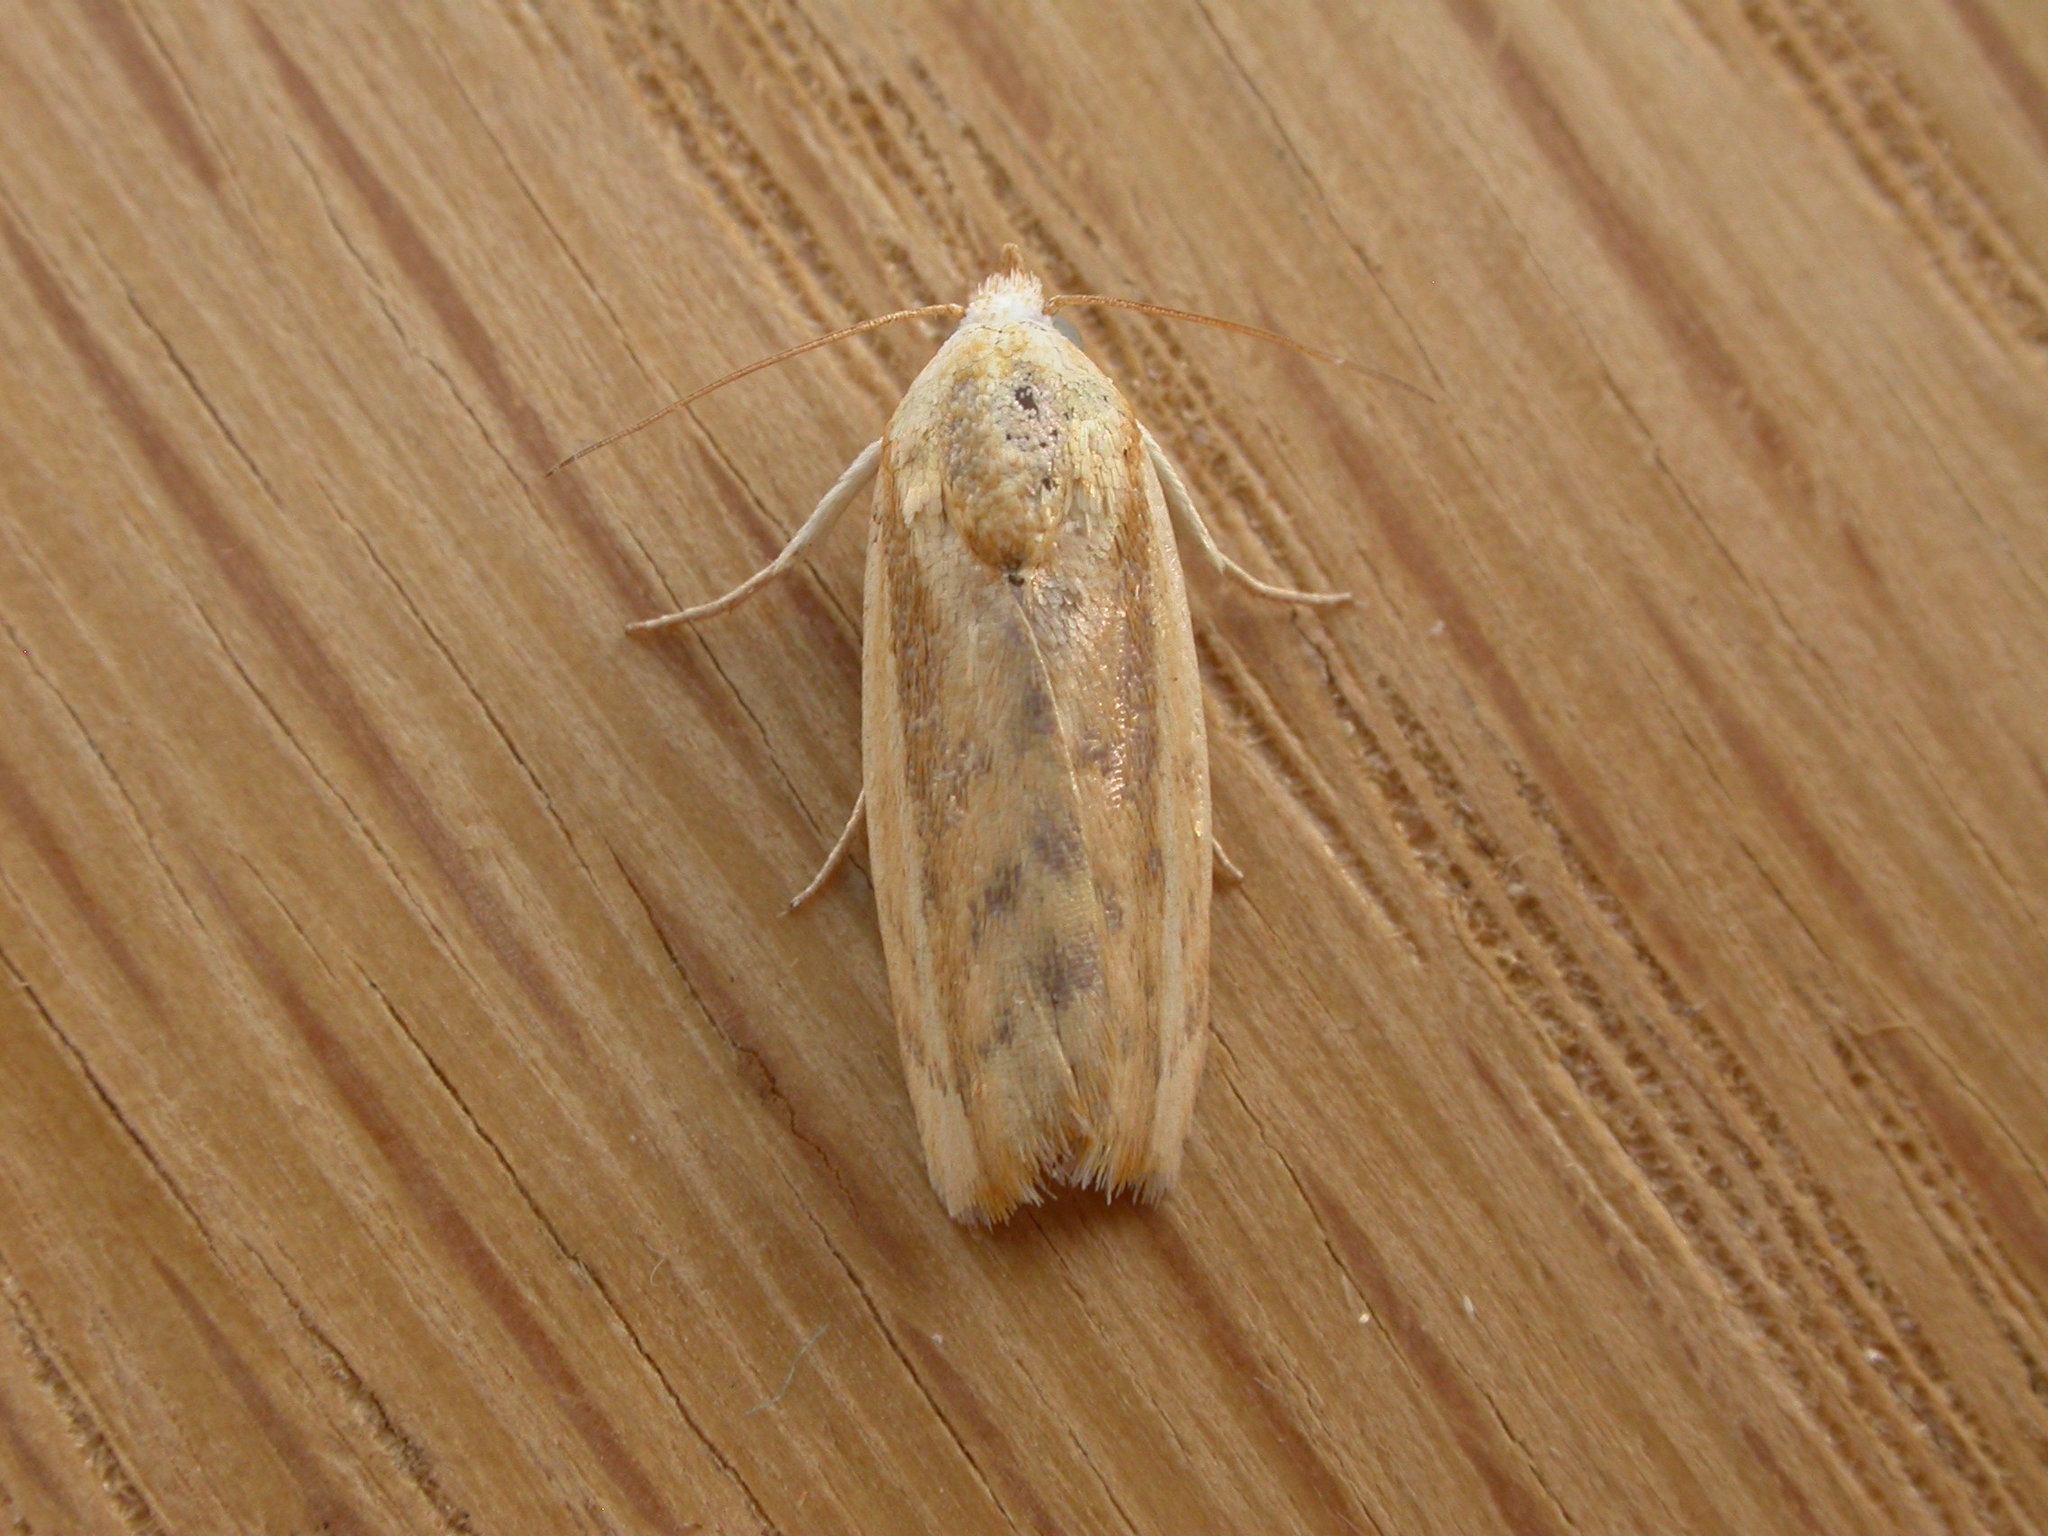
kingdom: Animalia
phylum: Arthropoda
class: Insecta
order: Lepidoptera
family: Nolidae
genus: Earias
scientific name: Earias huegeliana
